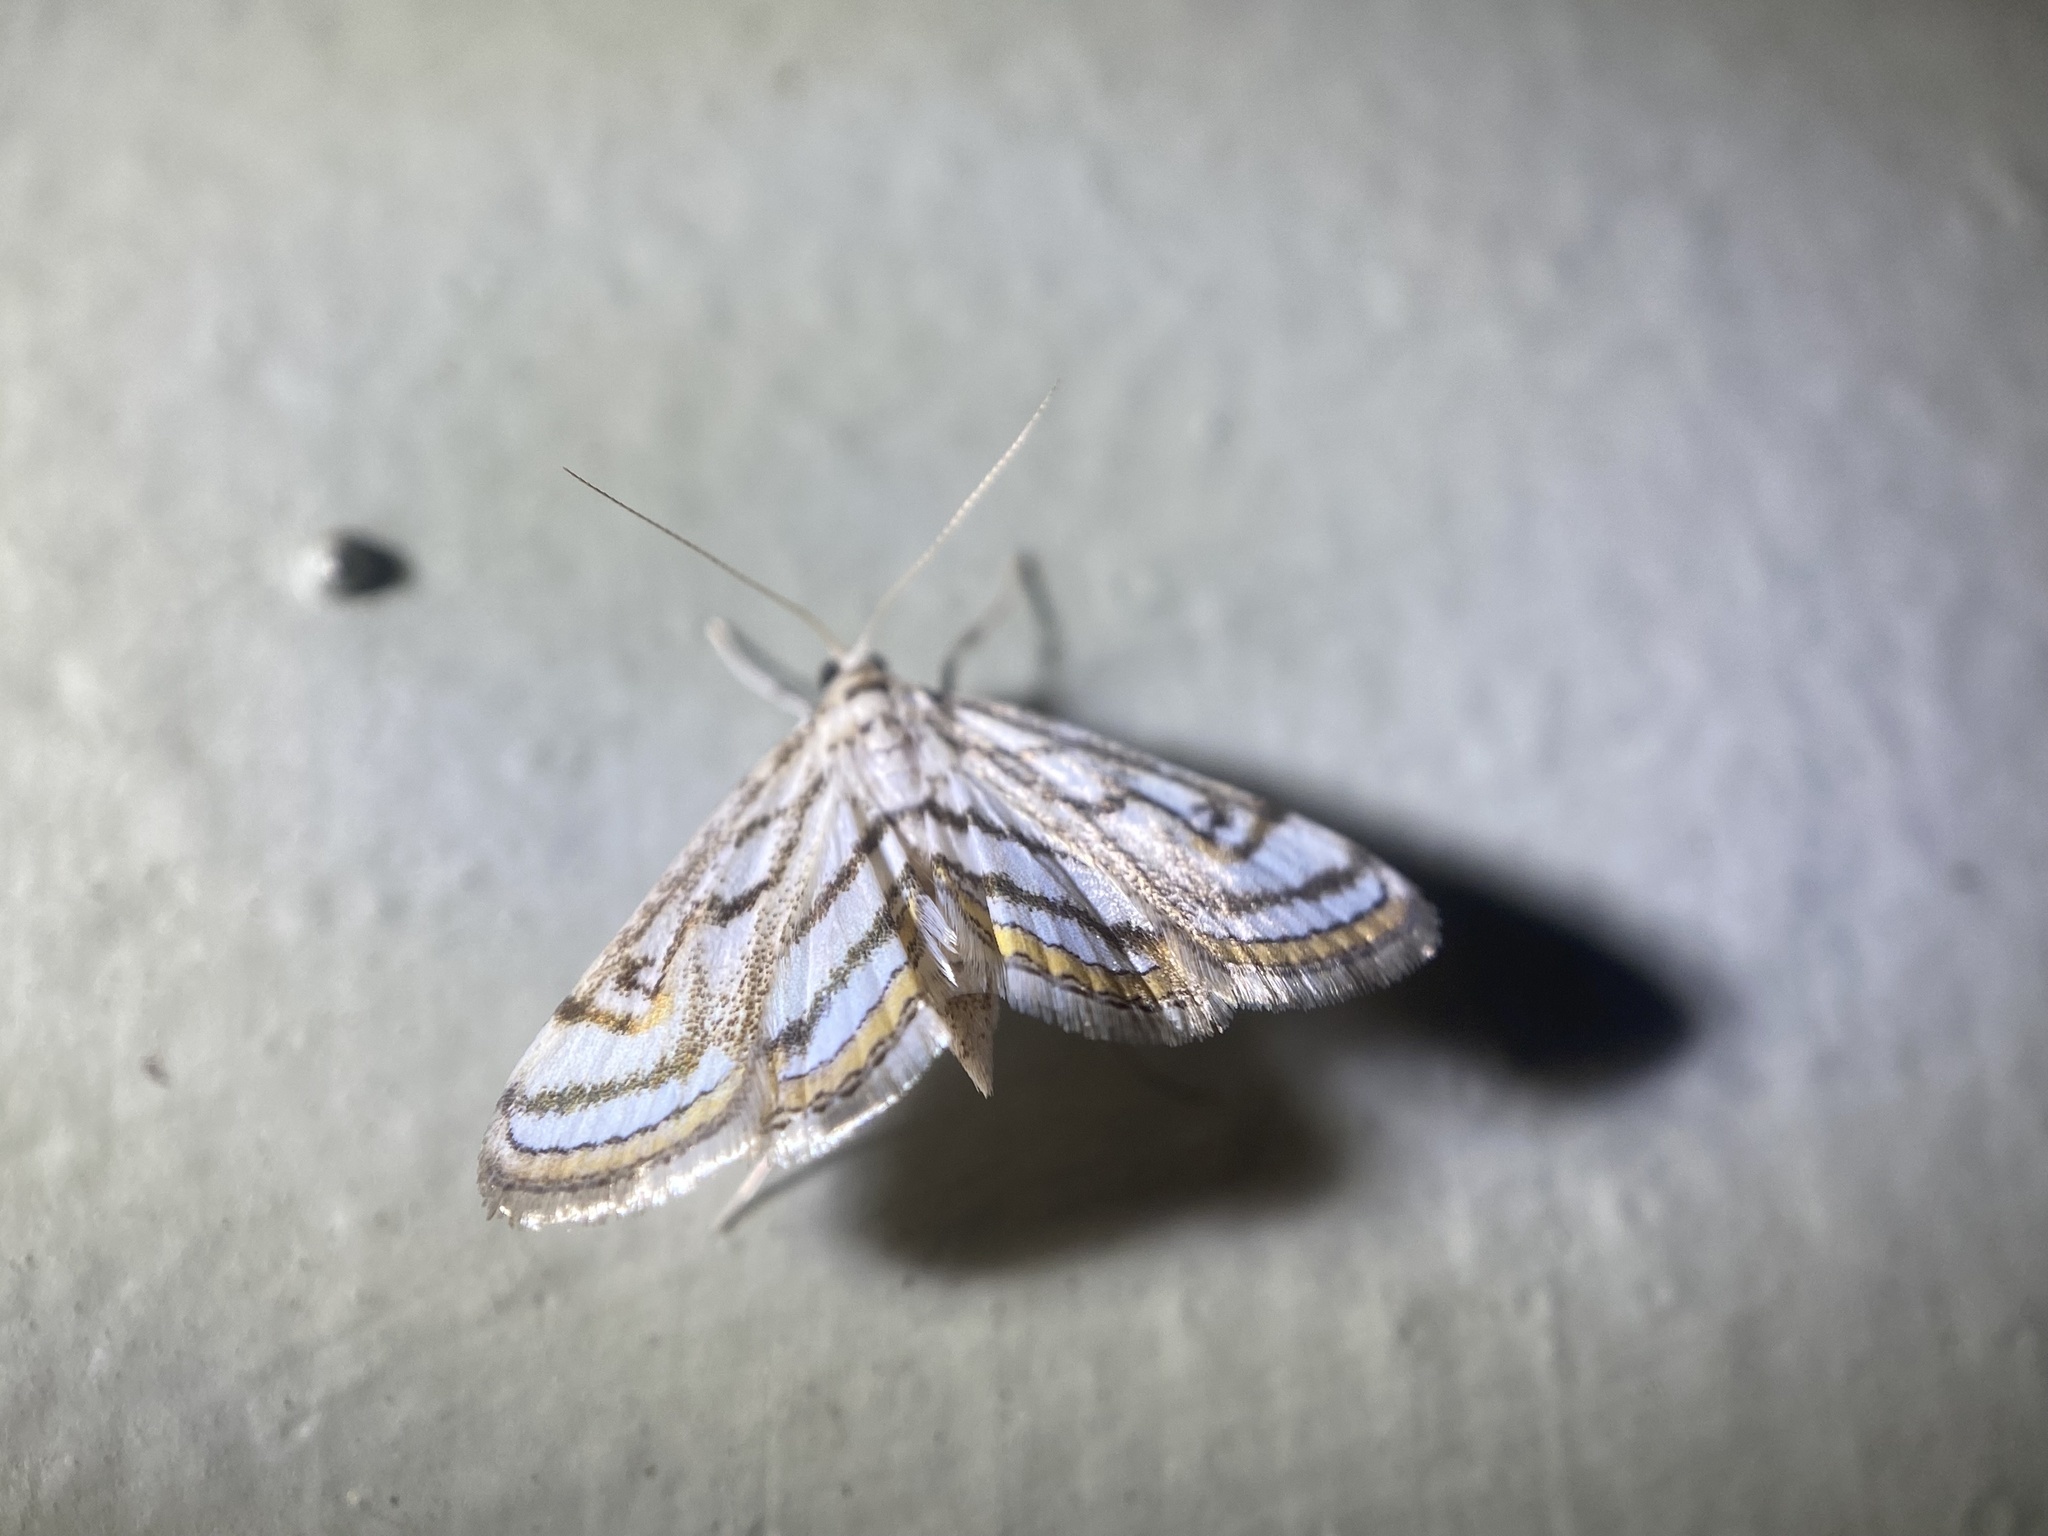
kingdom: Animalia
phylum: Arthropoda
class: Insecta
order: Lepidoptera
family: Crambidae
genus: Parapoynx
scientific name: Parapoynx badiusalis
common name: Chestnut-marked pondweed moth
